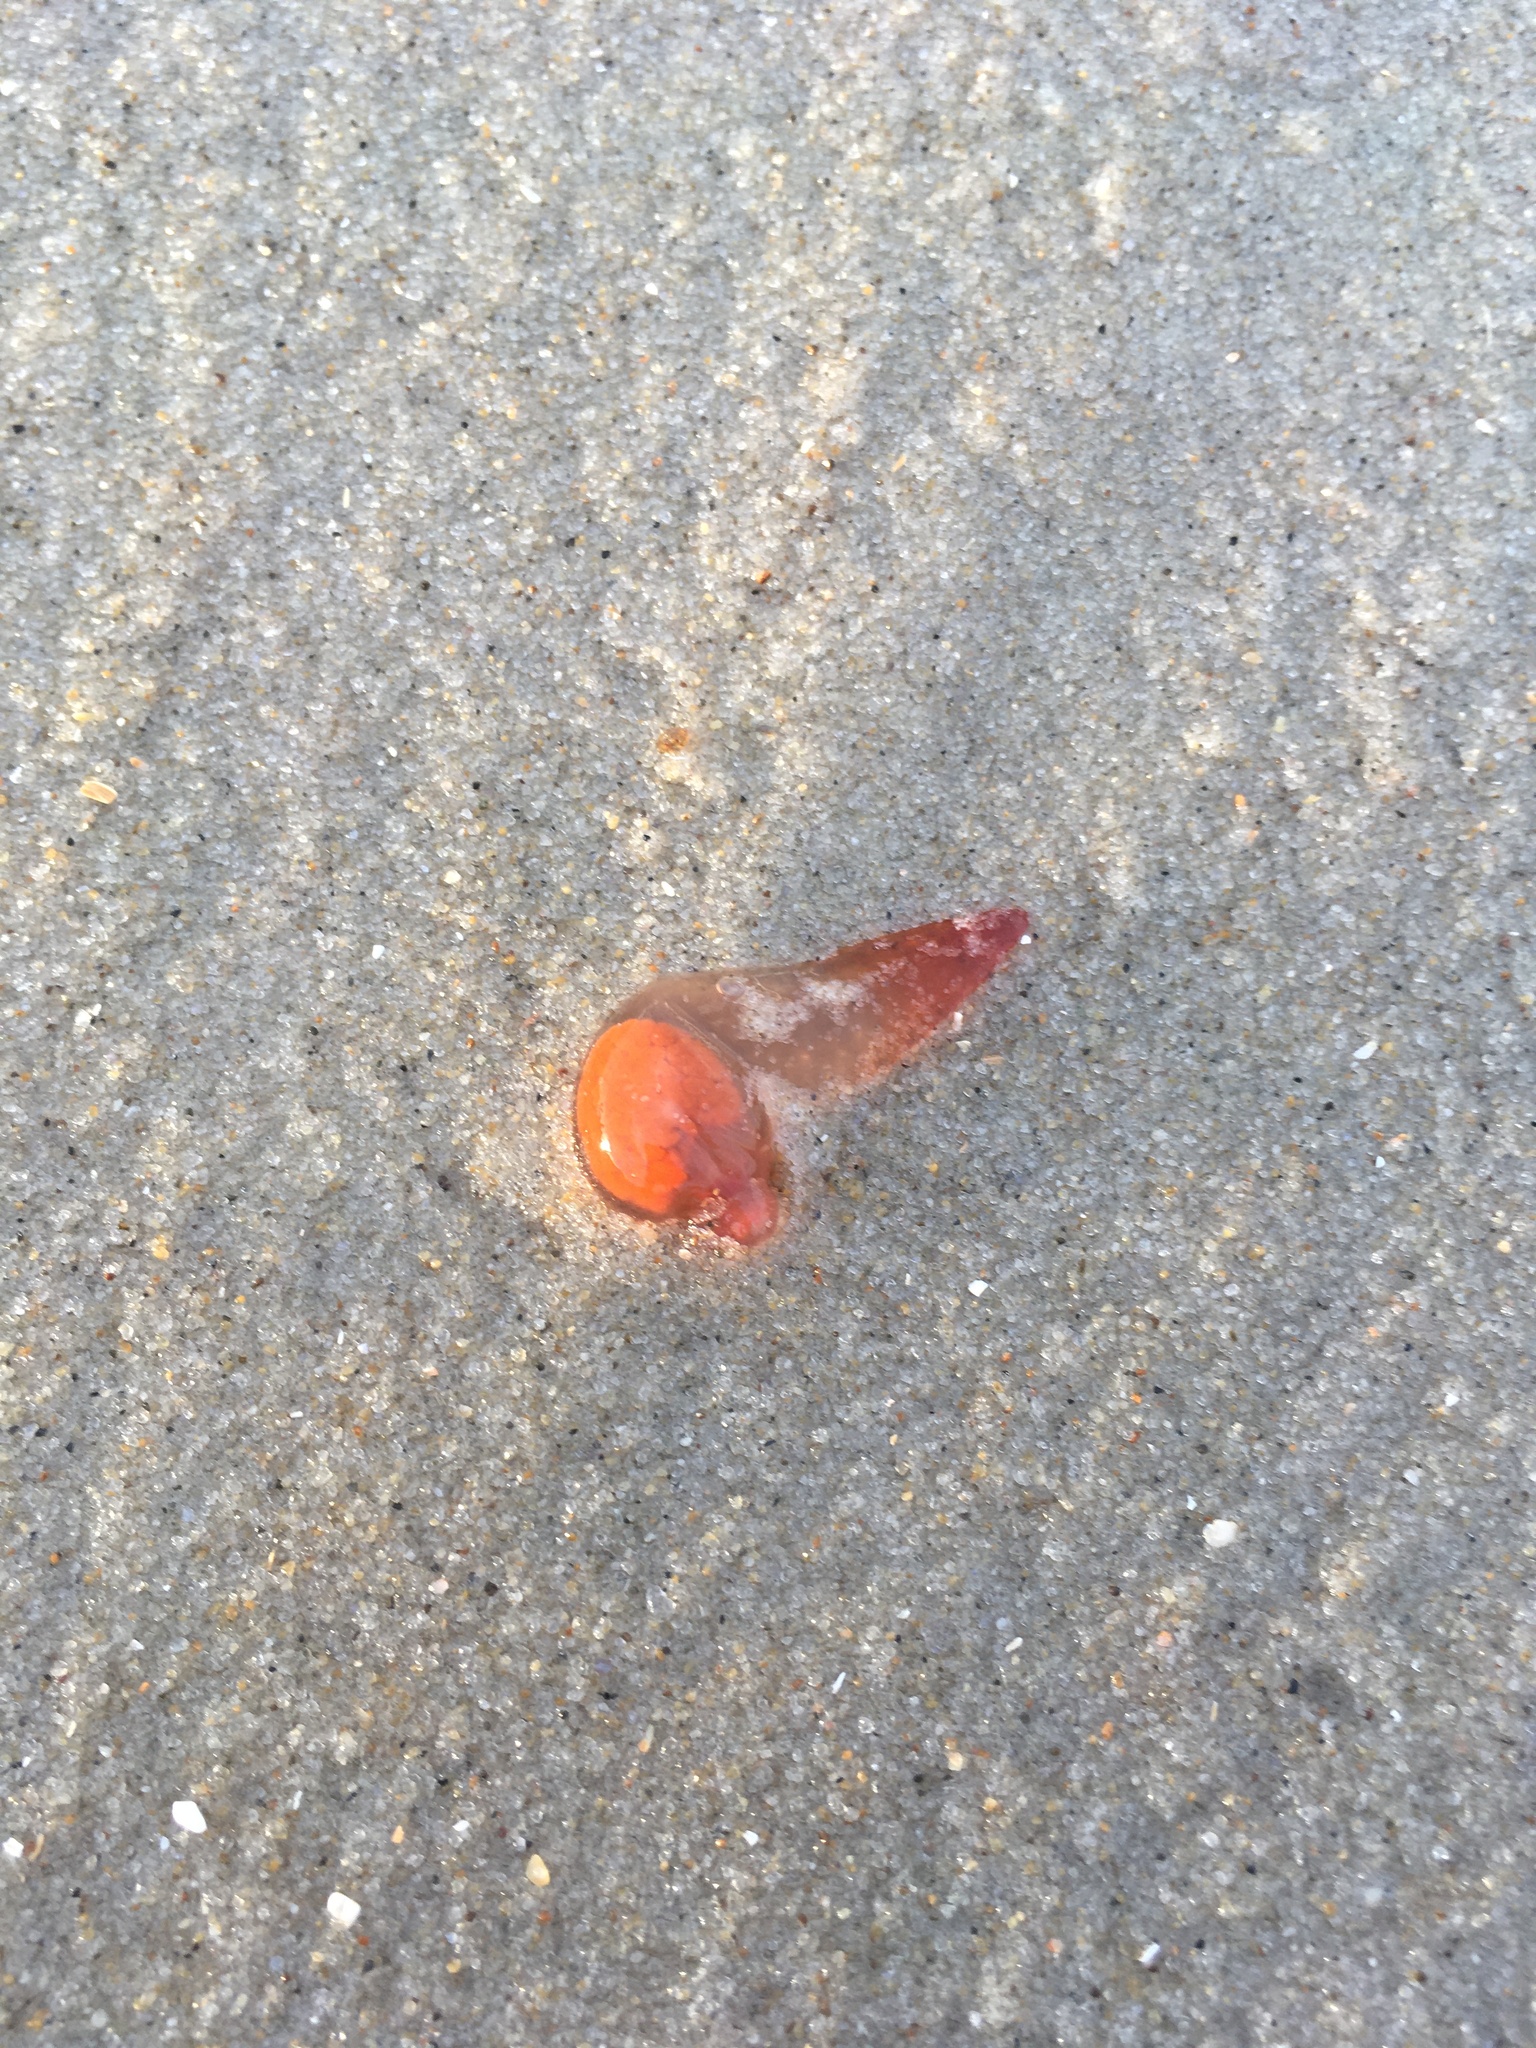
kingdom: Animalia
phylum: Mollusca
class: Gastropoda
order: Pteropoda
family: Clionidae
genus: Clione
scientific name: Clione limacina
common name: Common clione
